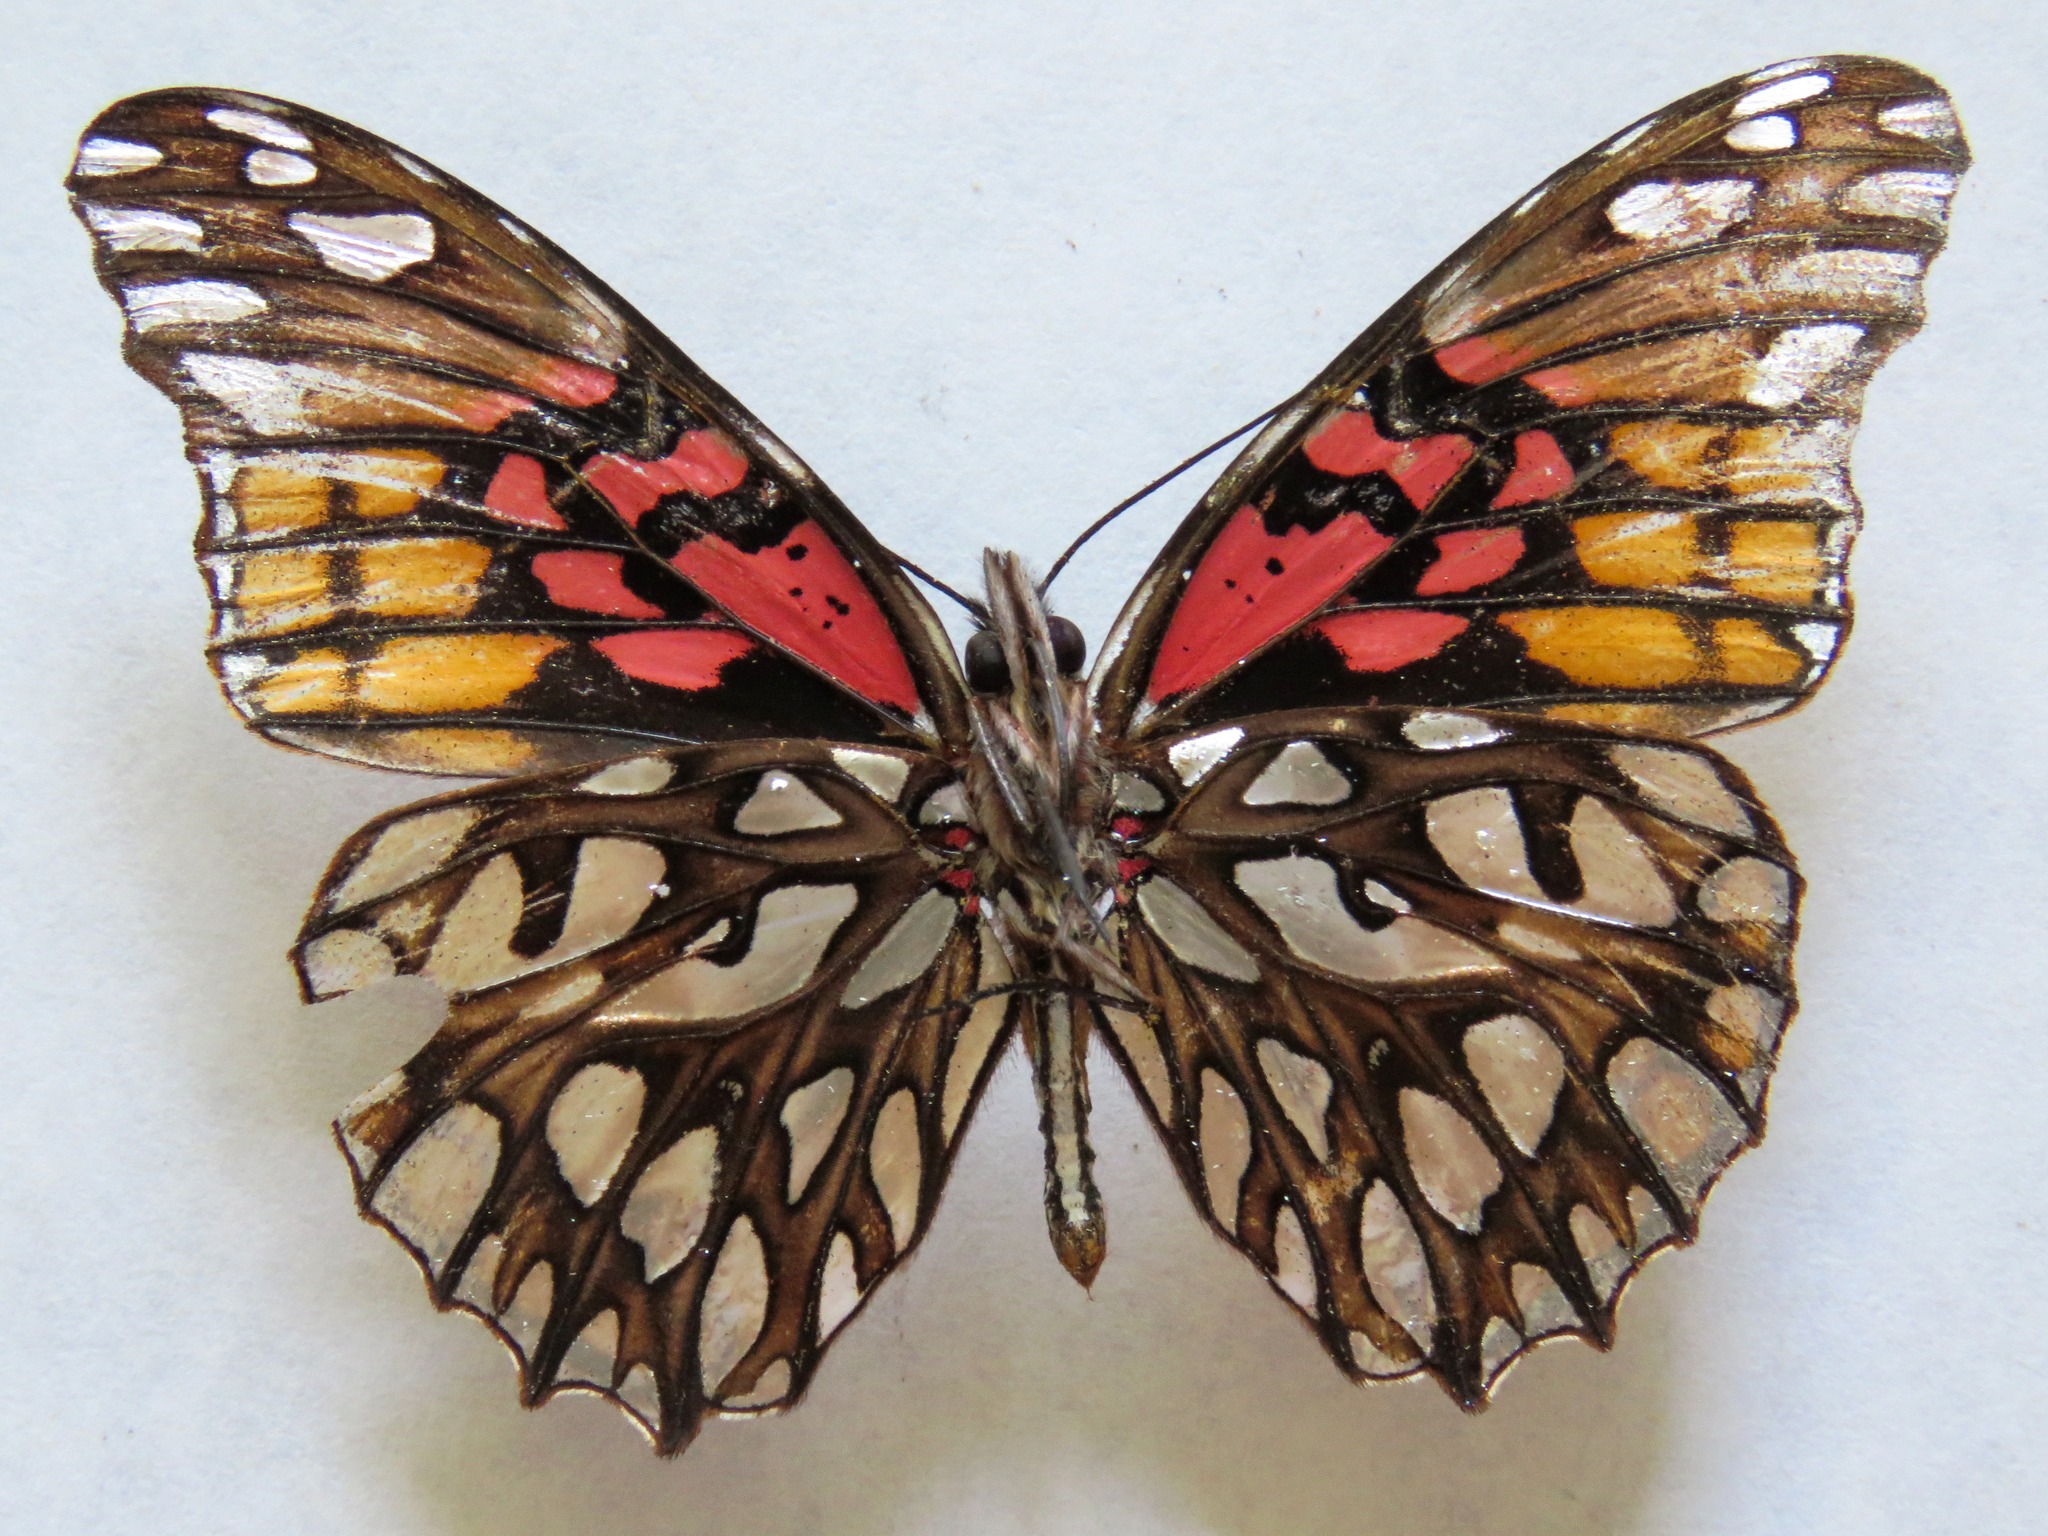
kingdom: Animalia
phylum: Arthropoda
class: Insecta
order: Lepidoptera
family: Nymphalidae
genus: Dione
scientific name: Dione moneta
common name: Mexican silverspot
